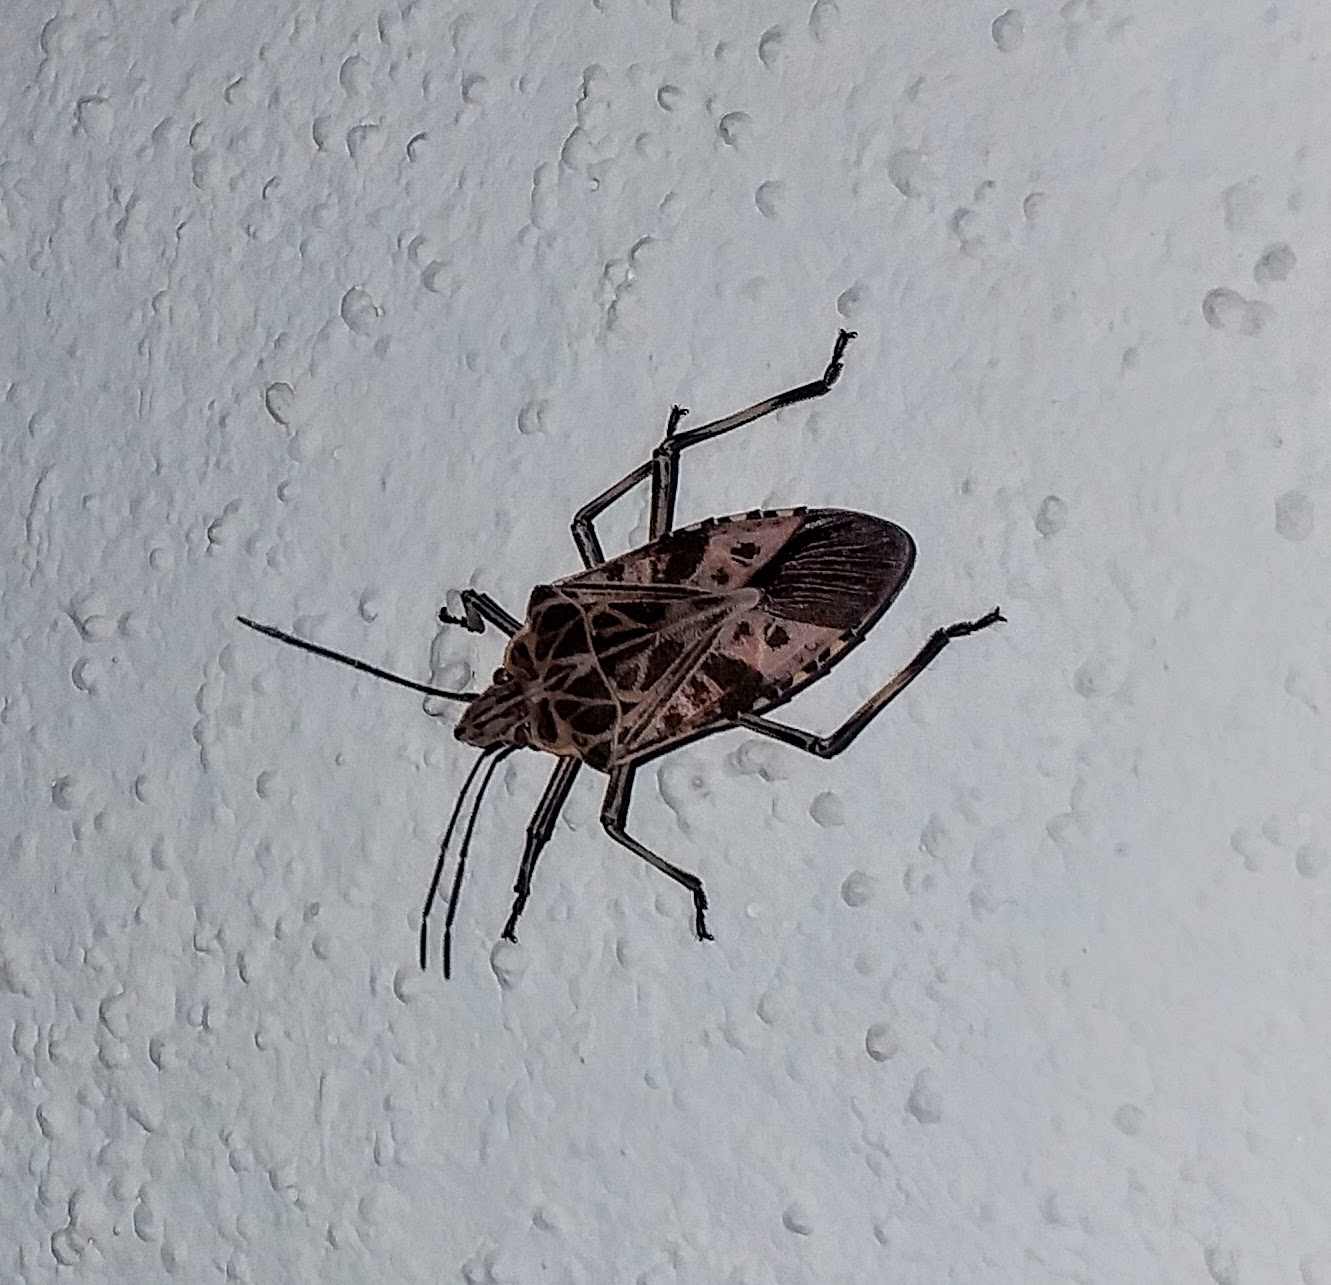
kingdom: Animalia
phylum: Arthropoda
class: Insecta
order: Hemiptera
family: Pentatomidae
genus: Agaeus
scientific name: Agaeus tessellatus
